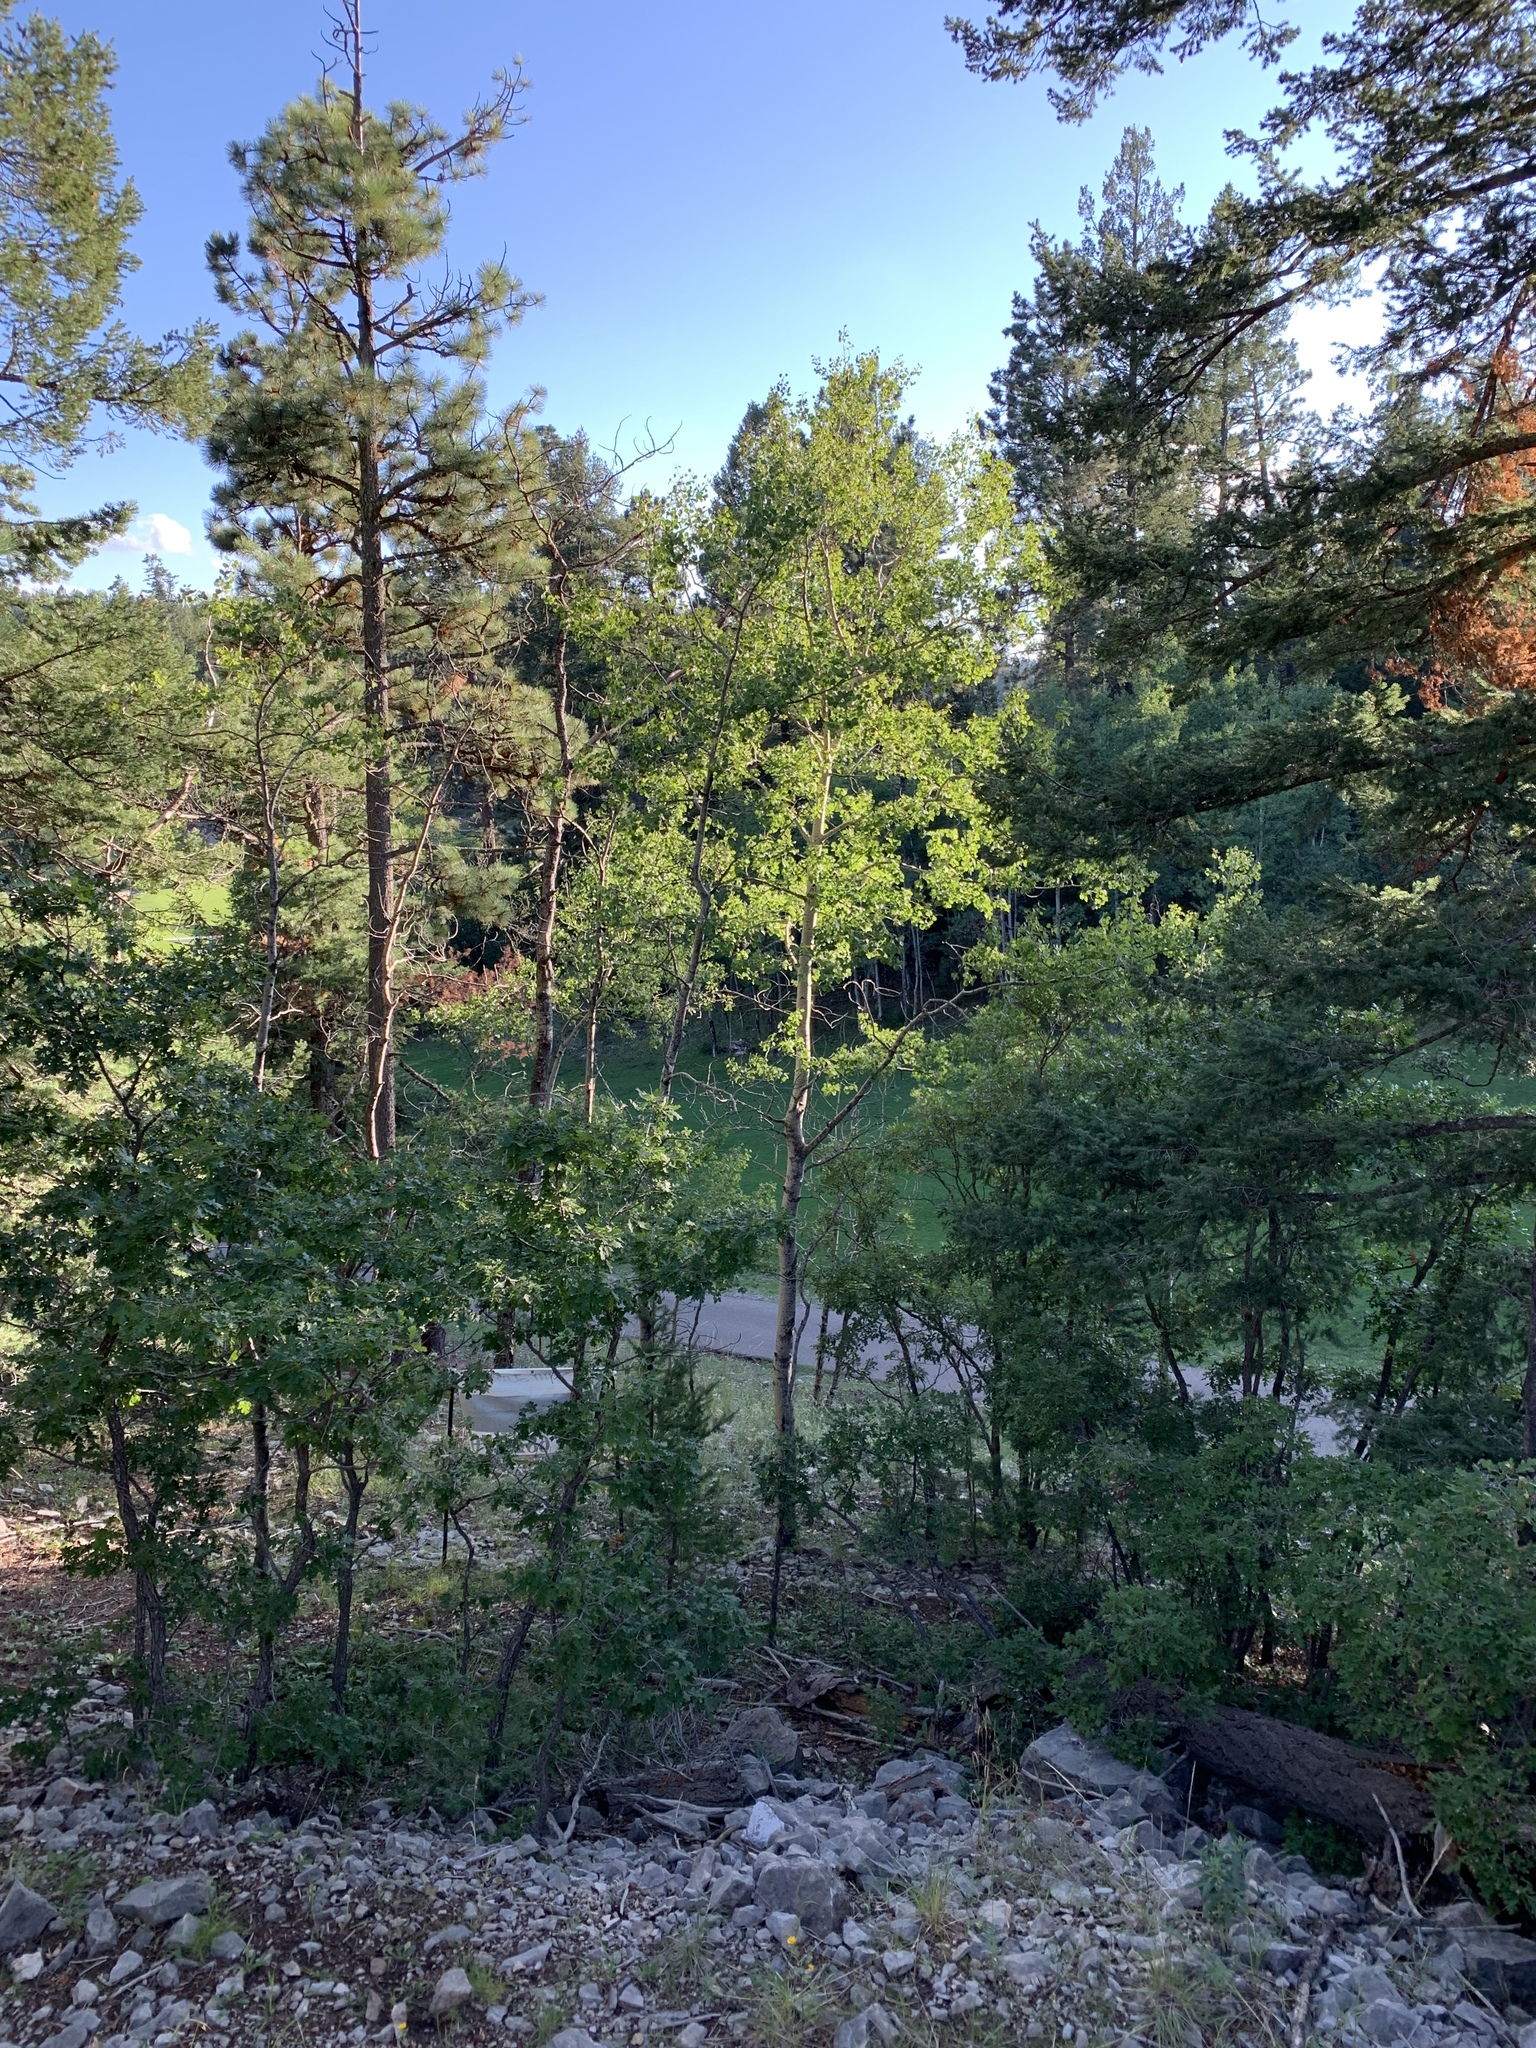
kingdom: Plantae
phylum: Tracheophyta
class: Magnoliopsida
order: Malpighiales
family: Salicaceae
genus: Populus
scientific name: Populus tremuloides
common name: Quaking aspen
